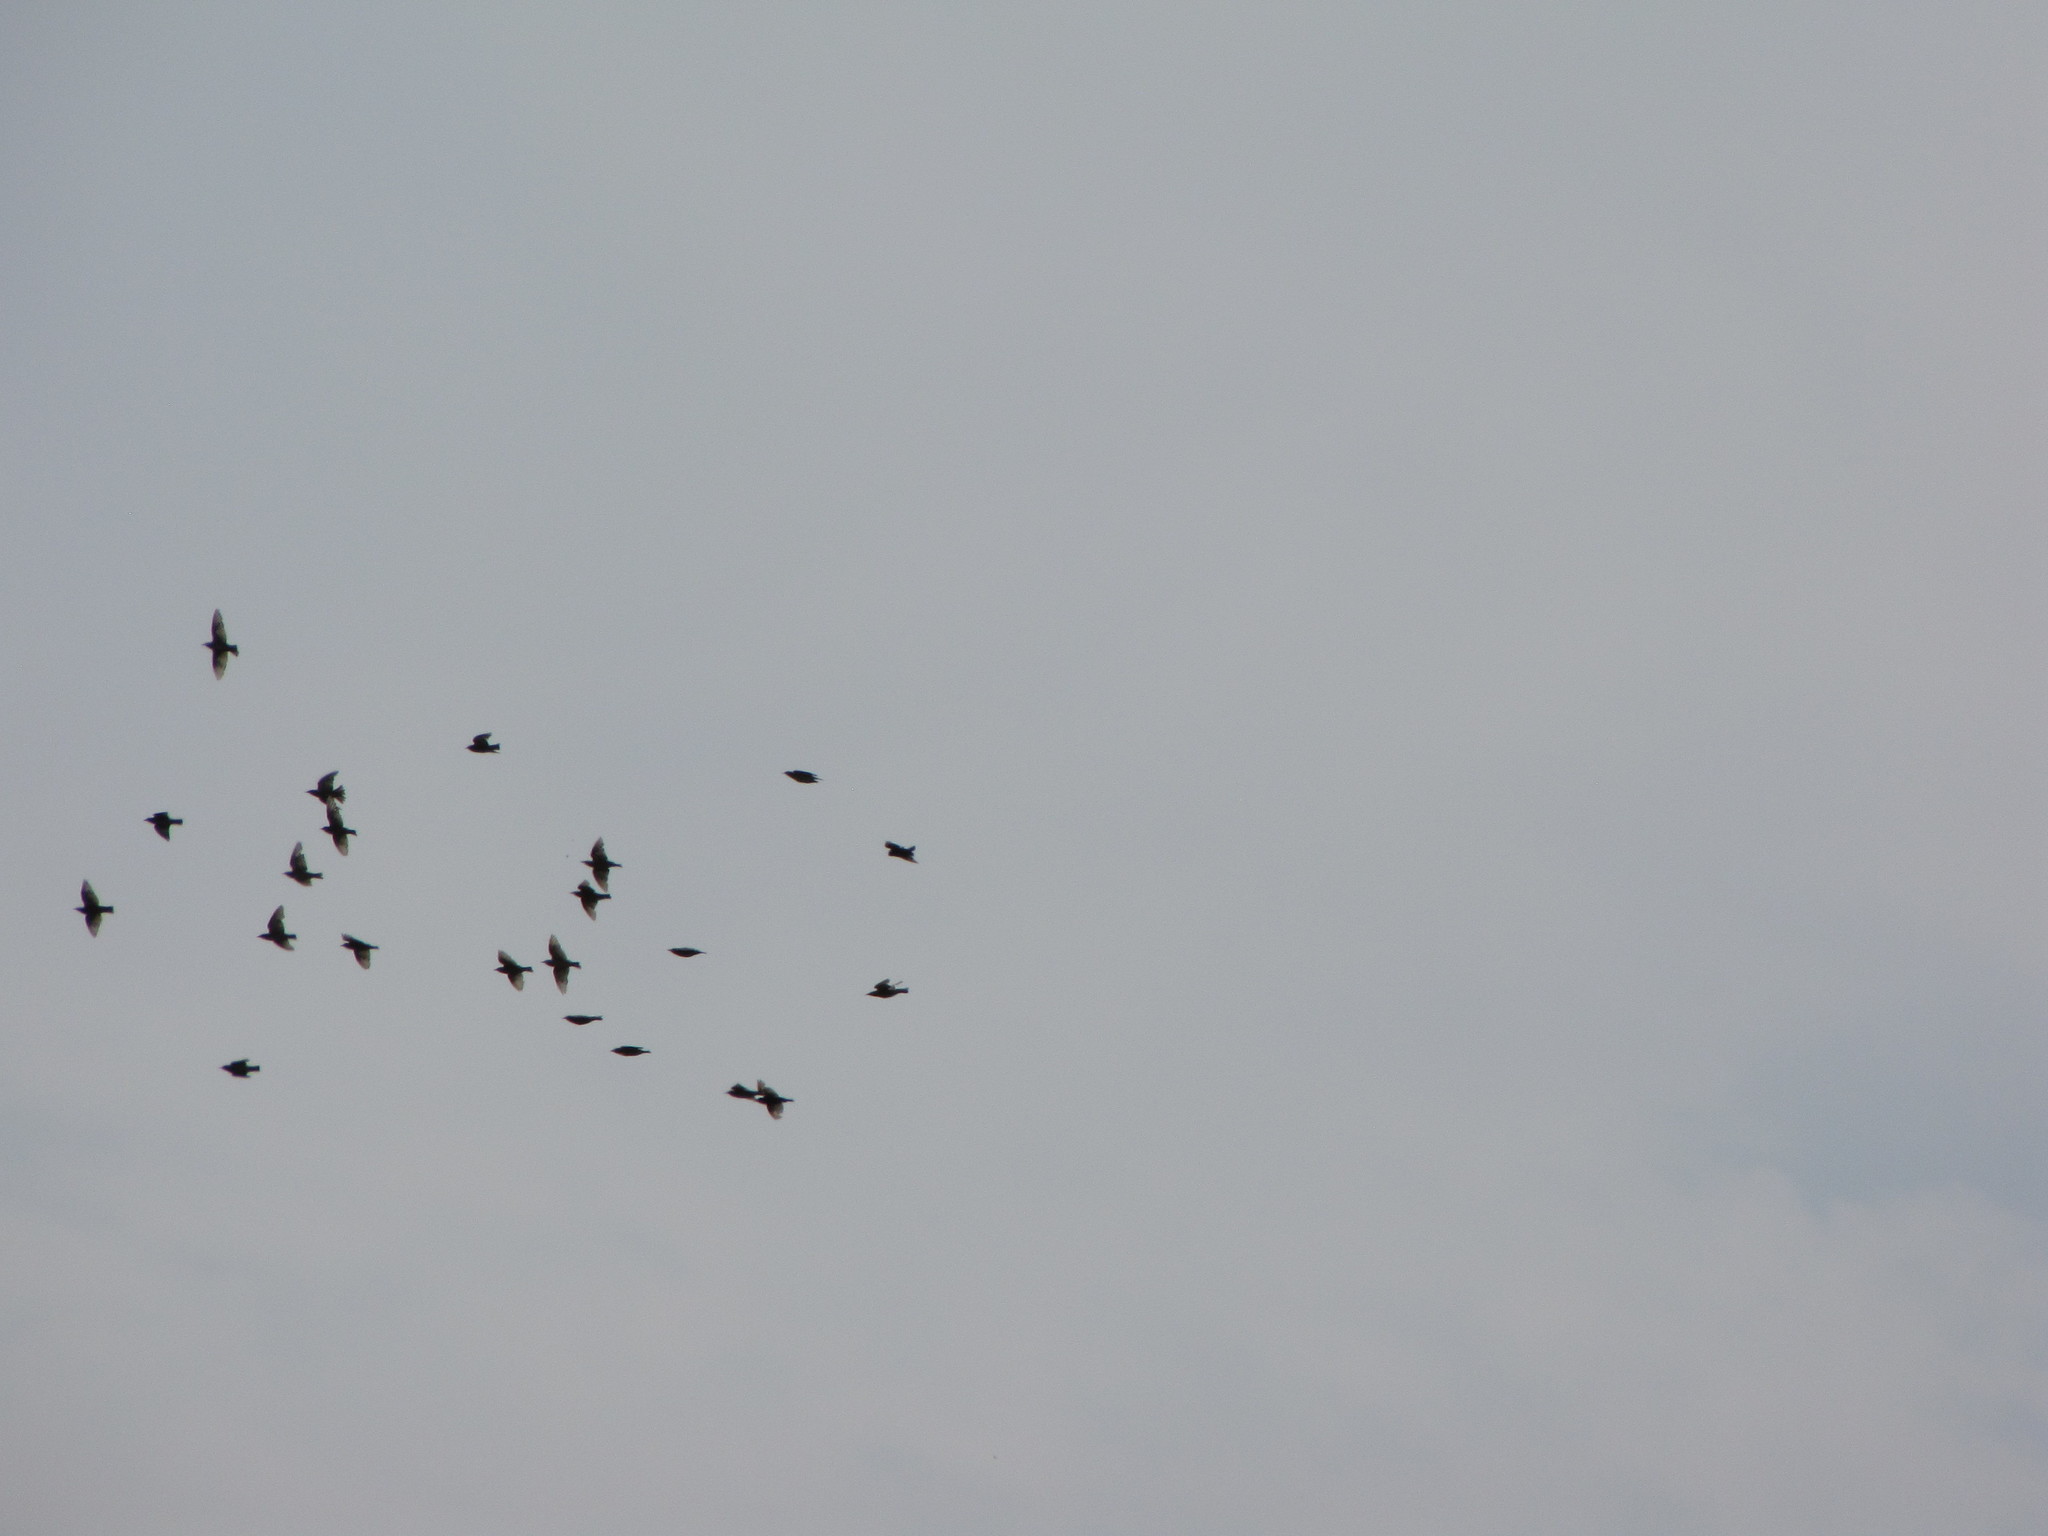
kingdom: Animalia
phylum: Chordata
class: Aves
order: Passeriformes
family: Sturnidae
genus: Sturnus
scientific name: Sturnus vulgaris
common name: Common starling
